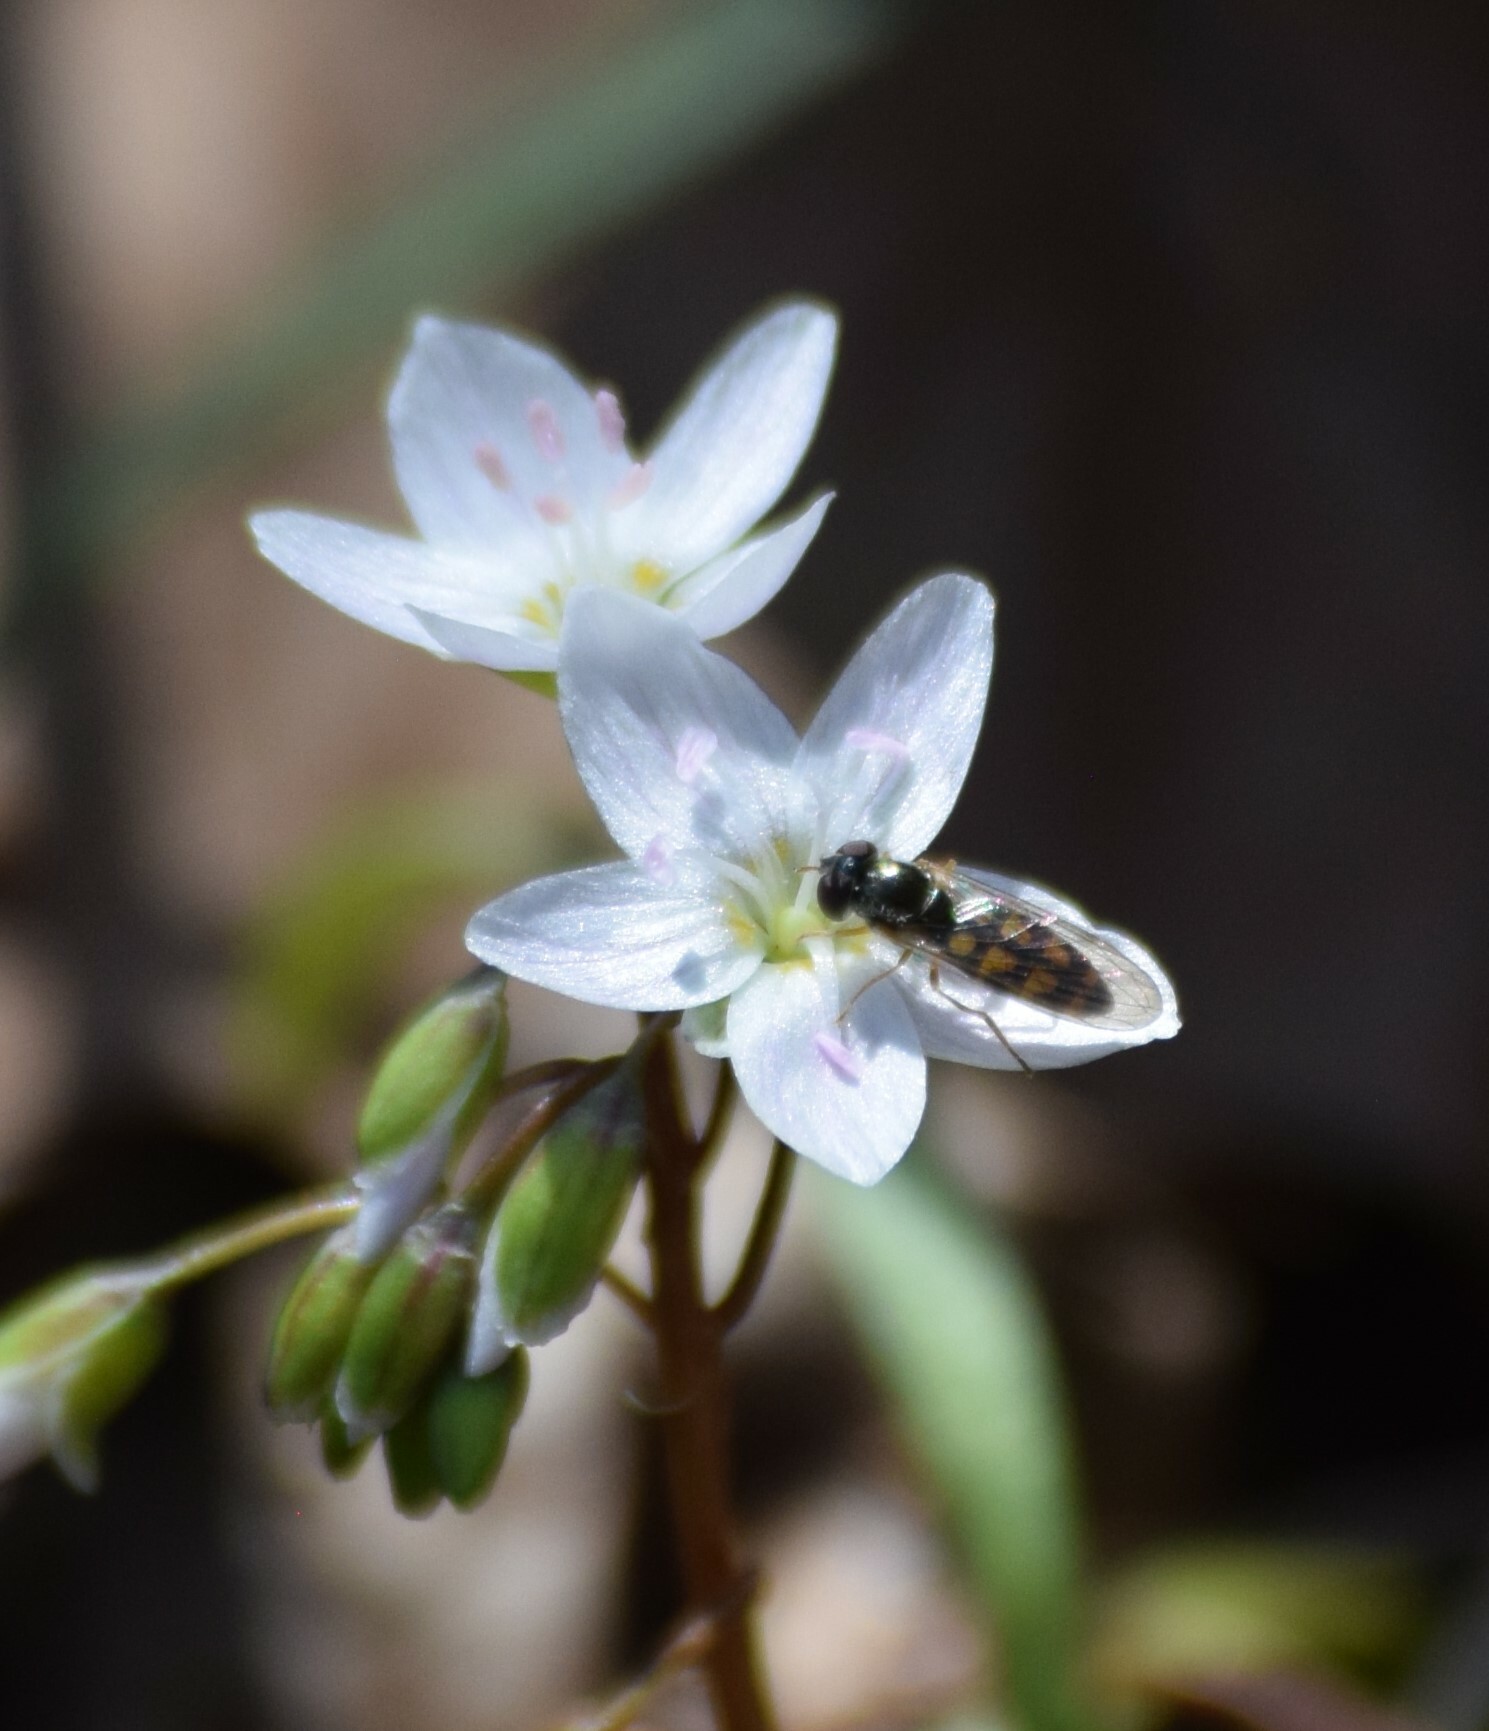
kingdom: Animalia
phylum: Arthropoda
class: Insecta
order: Diptera
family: Syrphidae
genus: Melanostoma
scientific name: Melanostoma mellina
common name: Hover fly
